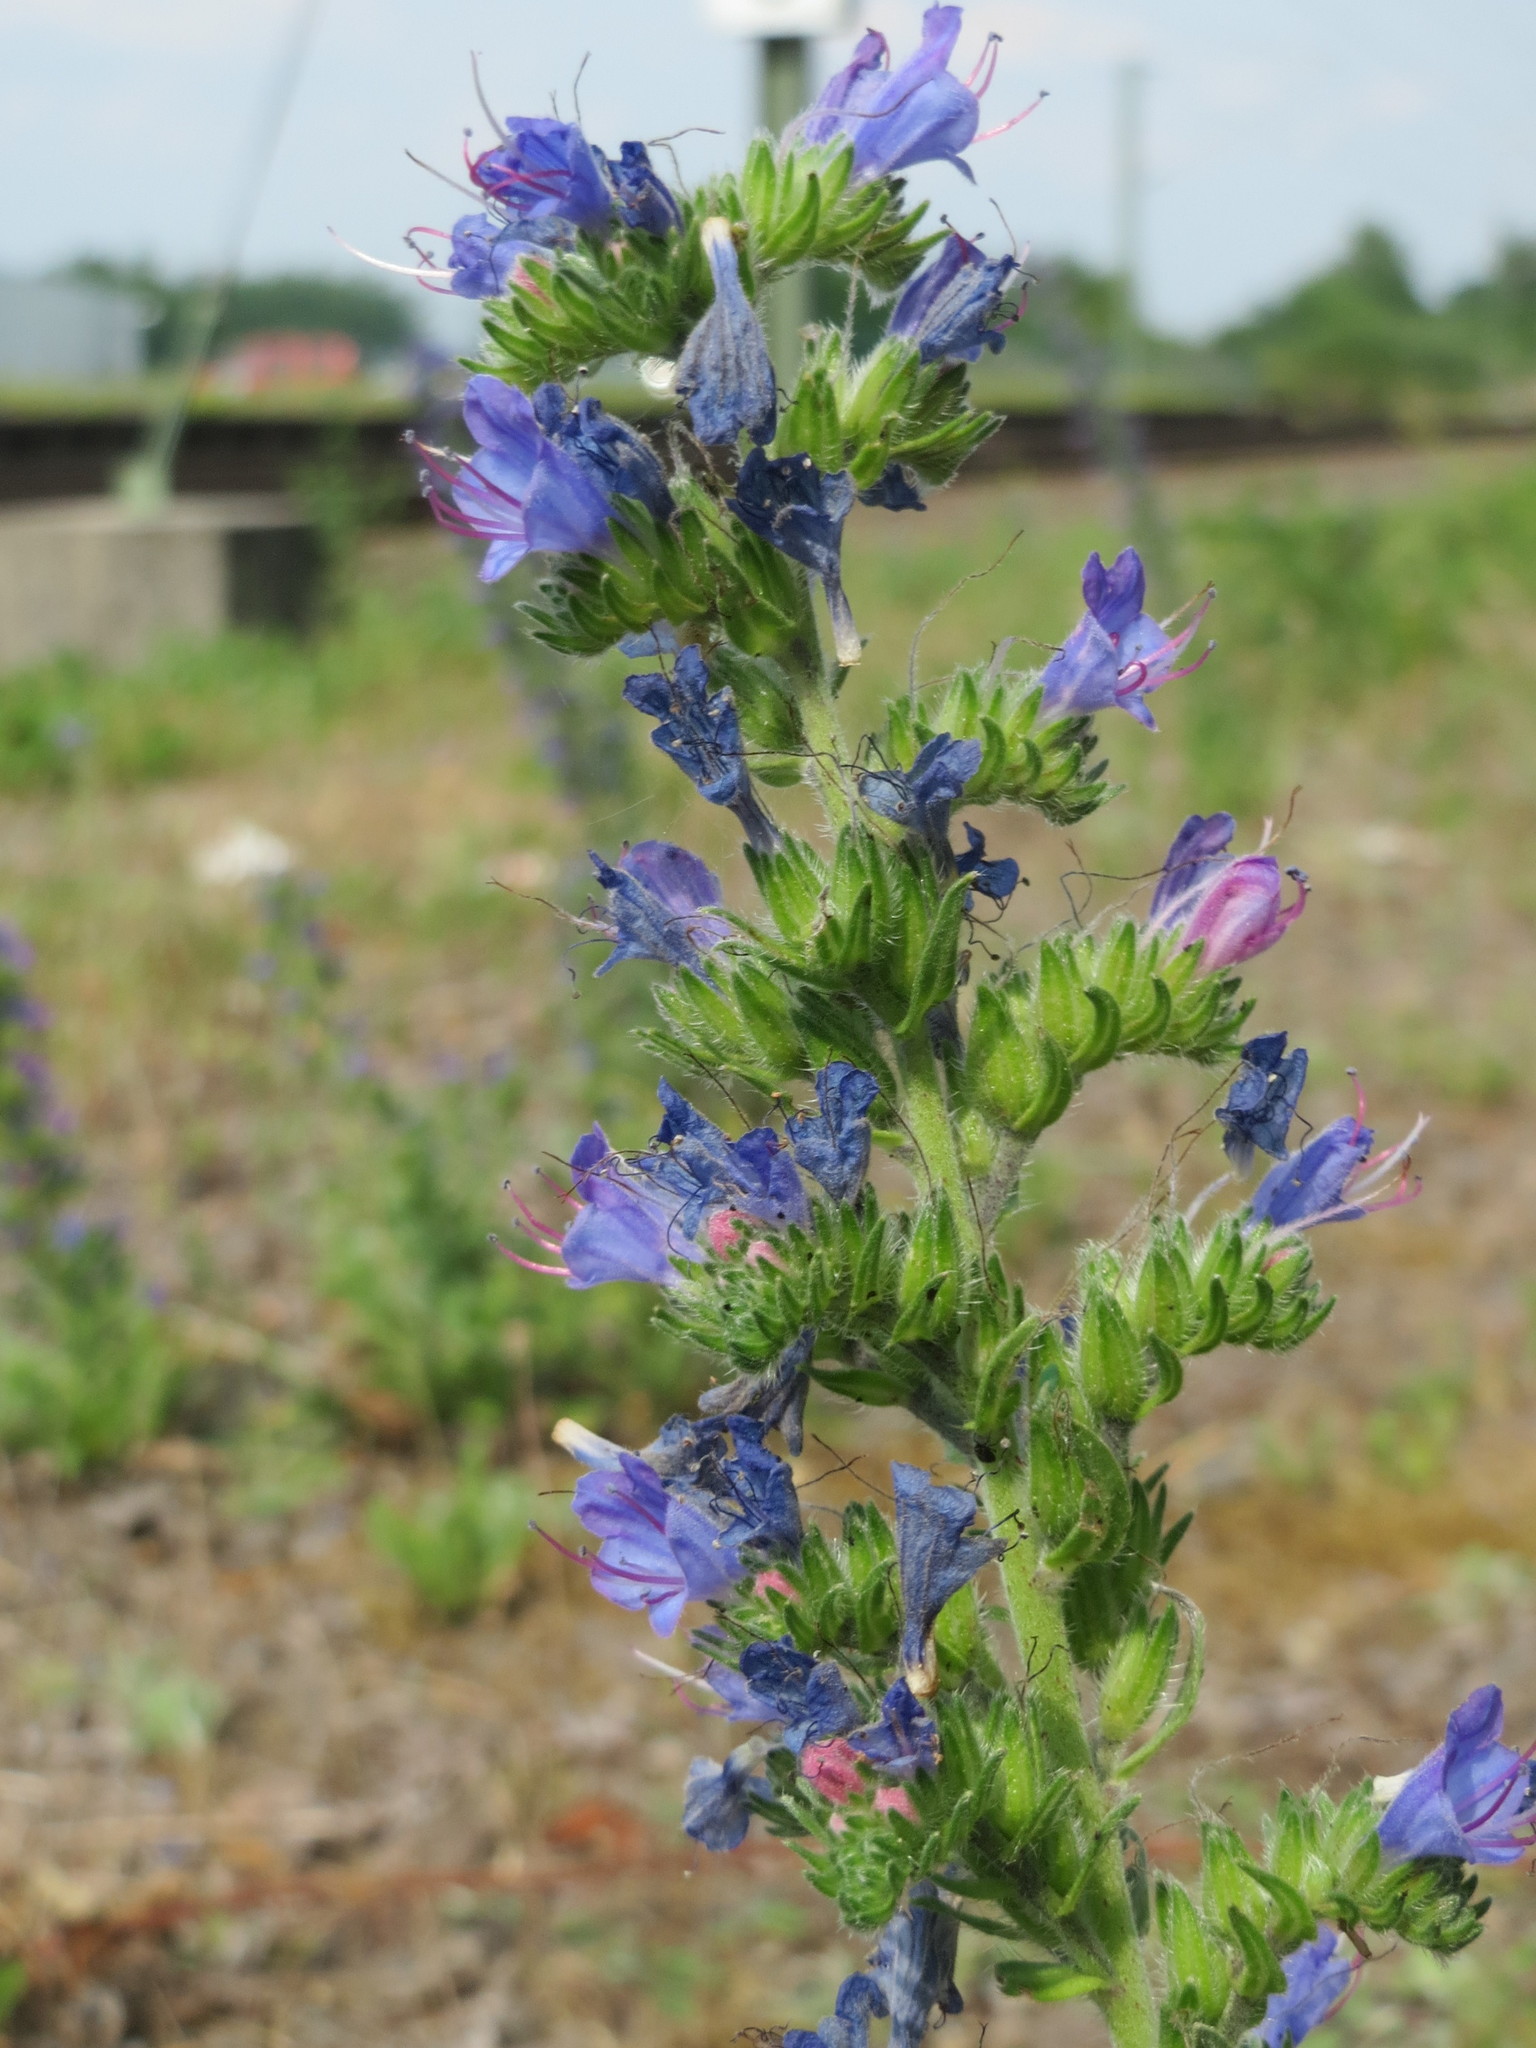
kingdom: Plantae
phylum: Tracheophyta
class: Magnoliopsida
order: Boraginales
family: Boraginaceae
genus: Echium
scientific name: Echium vulgare
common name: Common viper's bugloss
